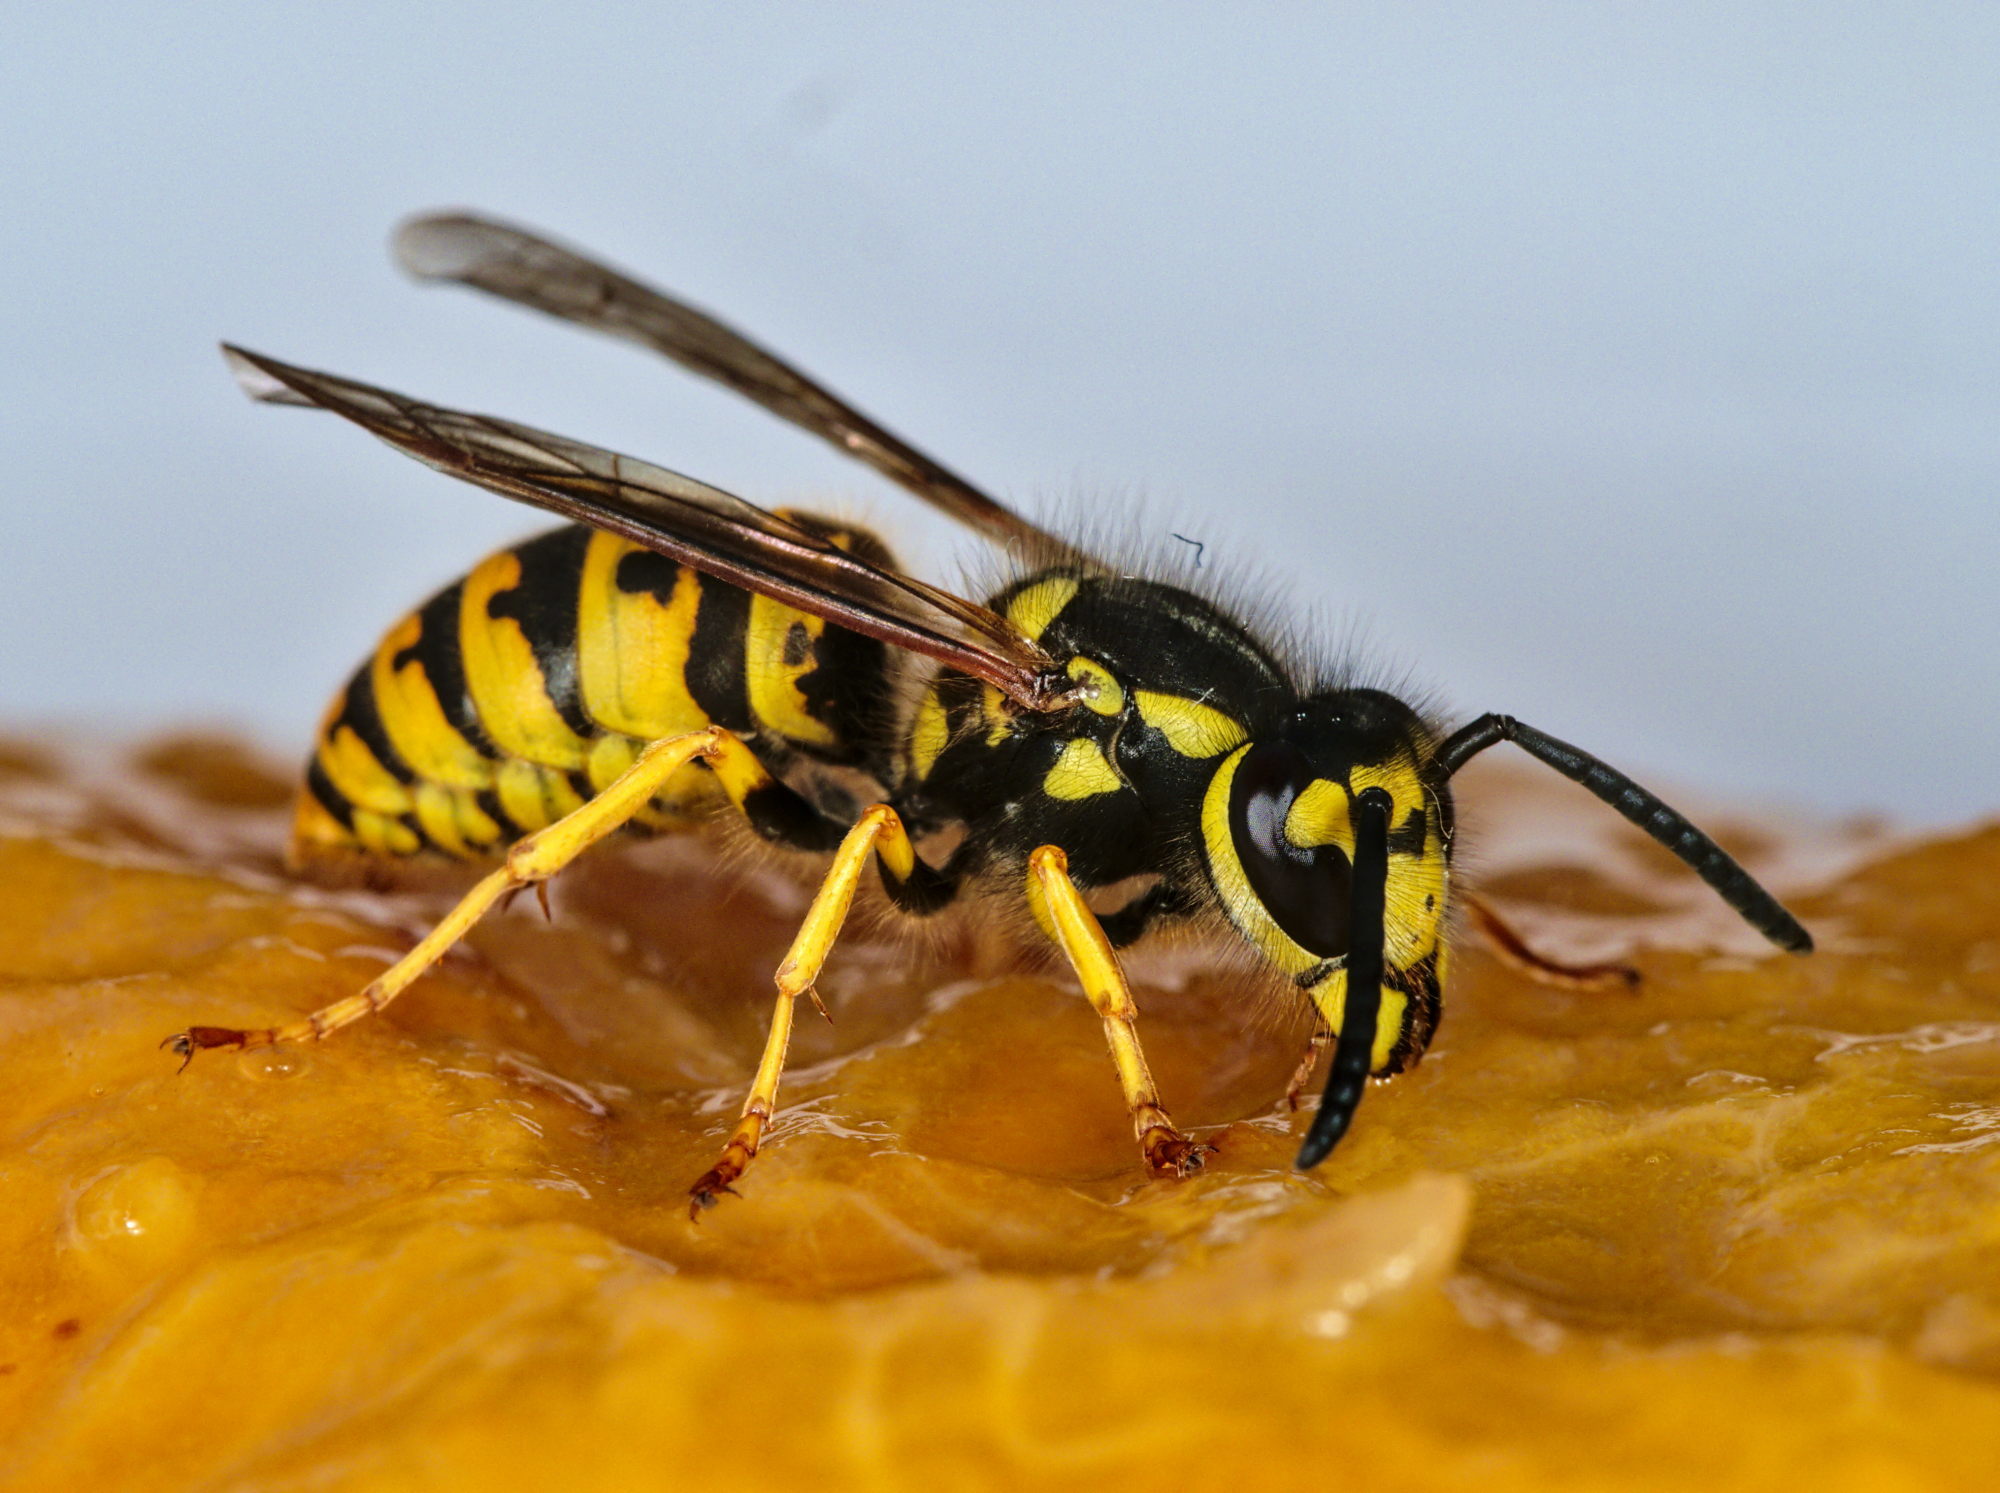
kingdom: Animalia
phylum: Arthropoda
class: Insecta
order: Hymenoptera
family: Vespidae
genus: Vespula
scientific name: Vespula germanica
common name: German wasp
